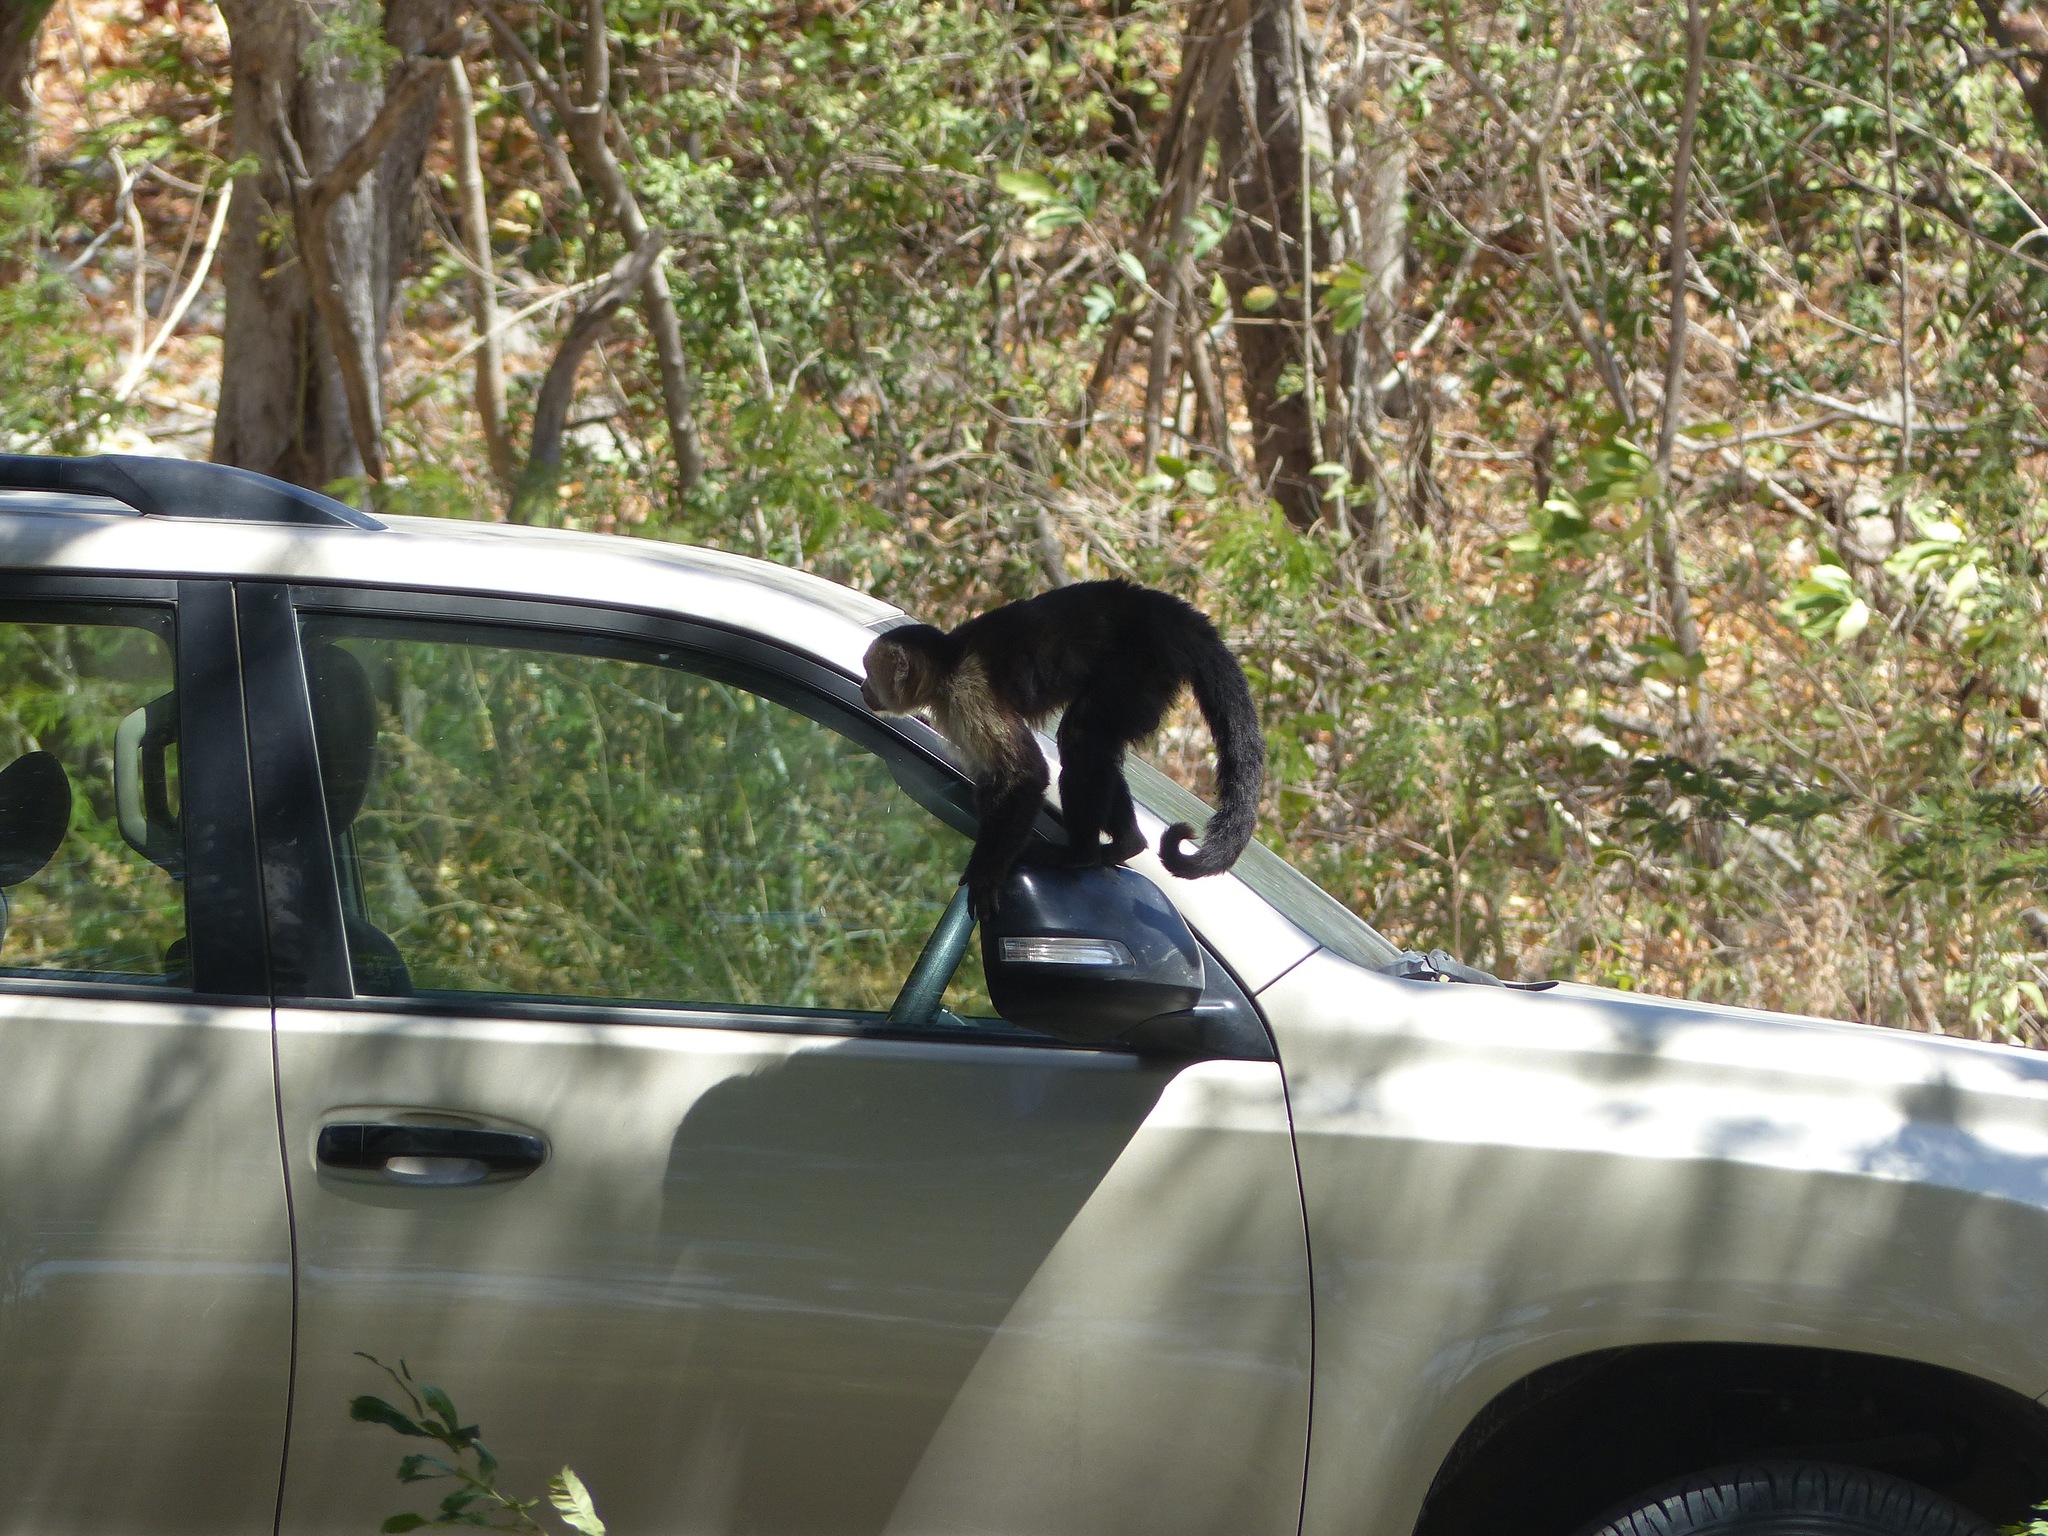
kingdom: Animalia
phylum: Chordata
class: Mammalia
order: Primates
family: Cebidae
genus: Cebus
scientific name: Cebus imitator
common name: Panamanian white-faced capuchin
